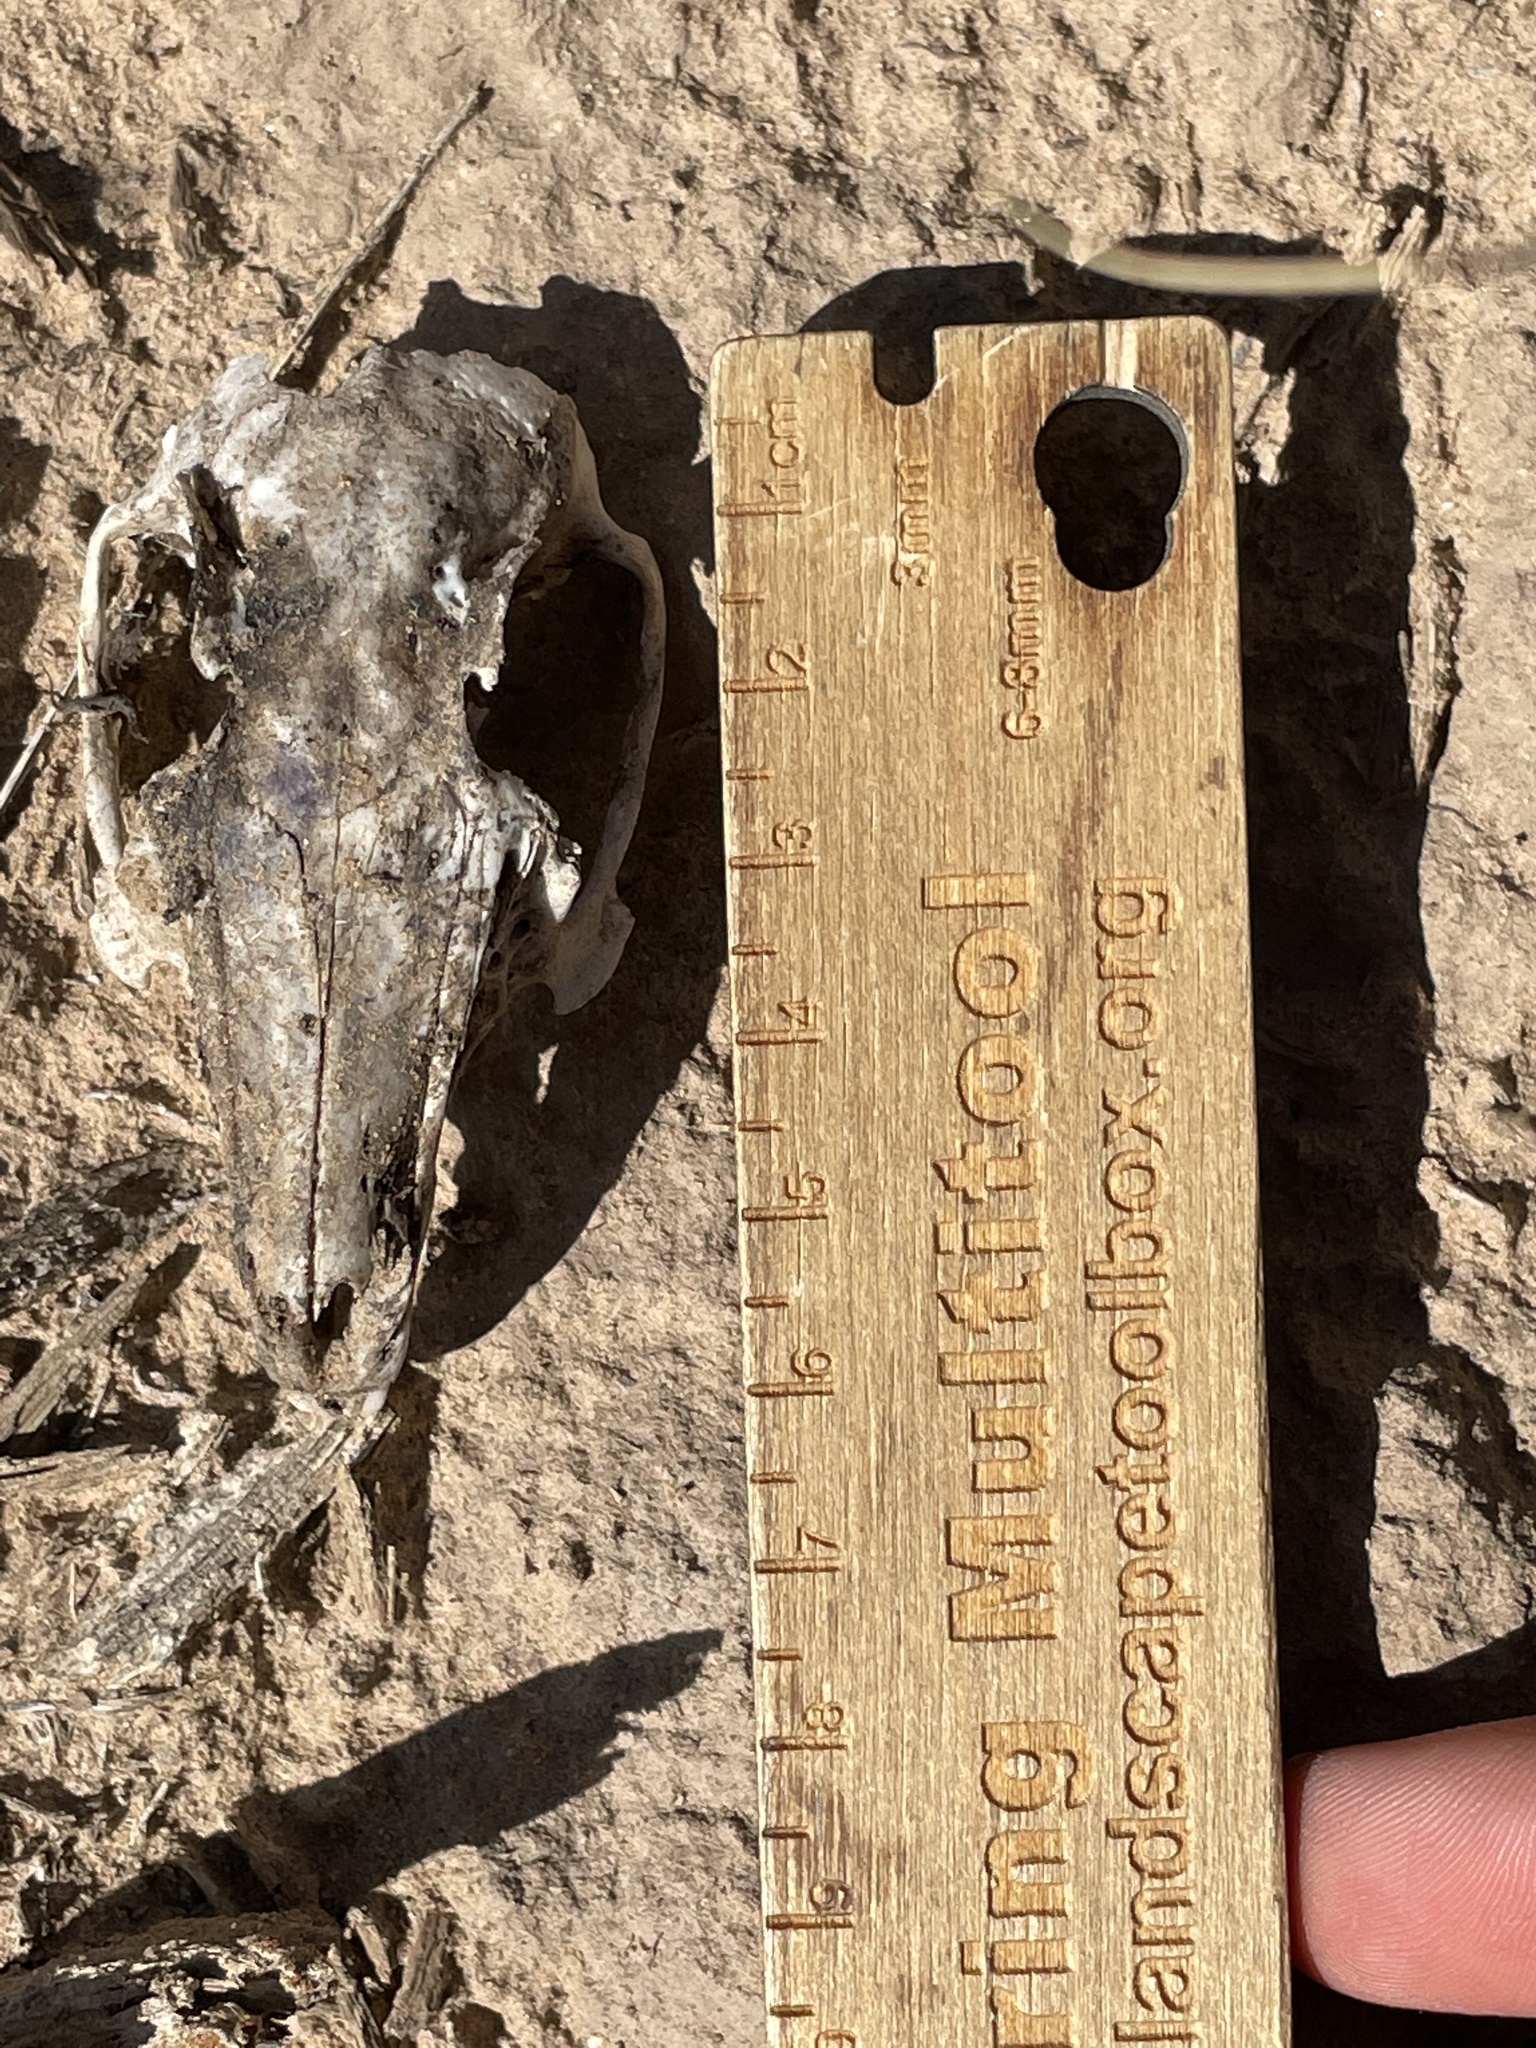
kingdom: Animalia
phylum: Chordata
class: Mammalia
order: Lagomorpha
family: Leporidae
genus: Sylvilagus
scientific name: Sylvilagus audubonii
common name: Desert cottontail
